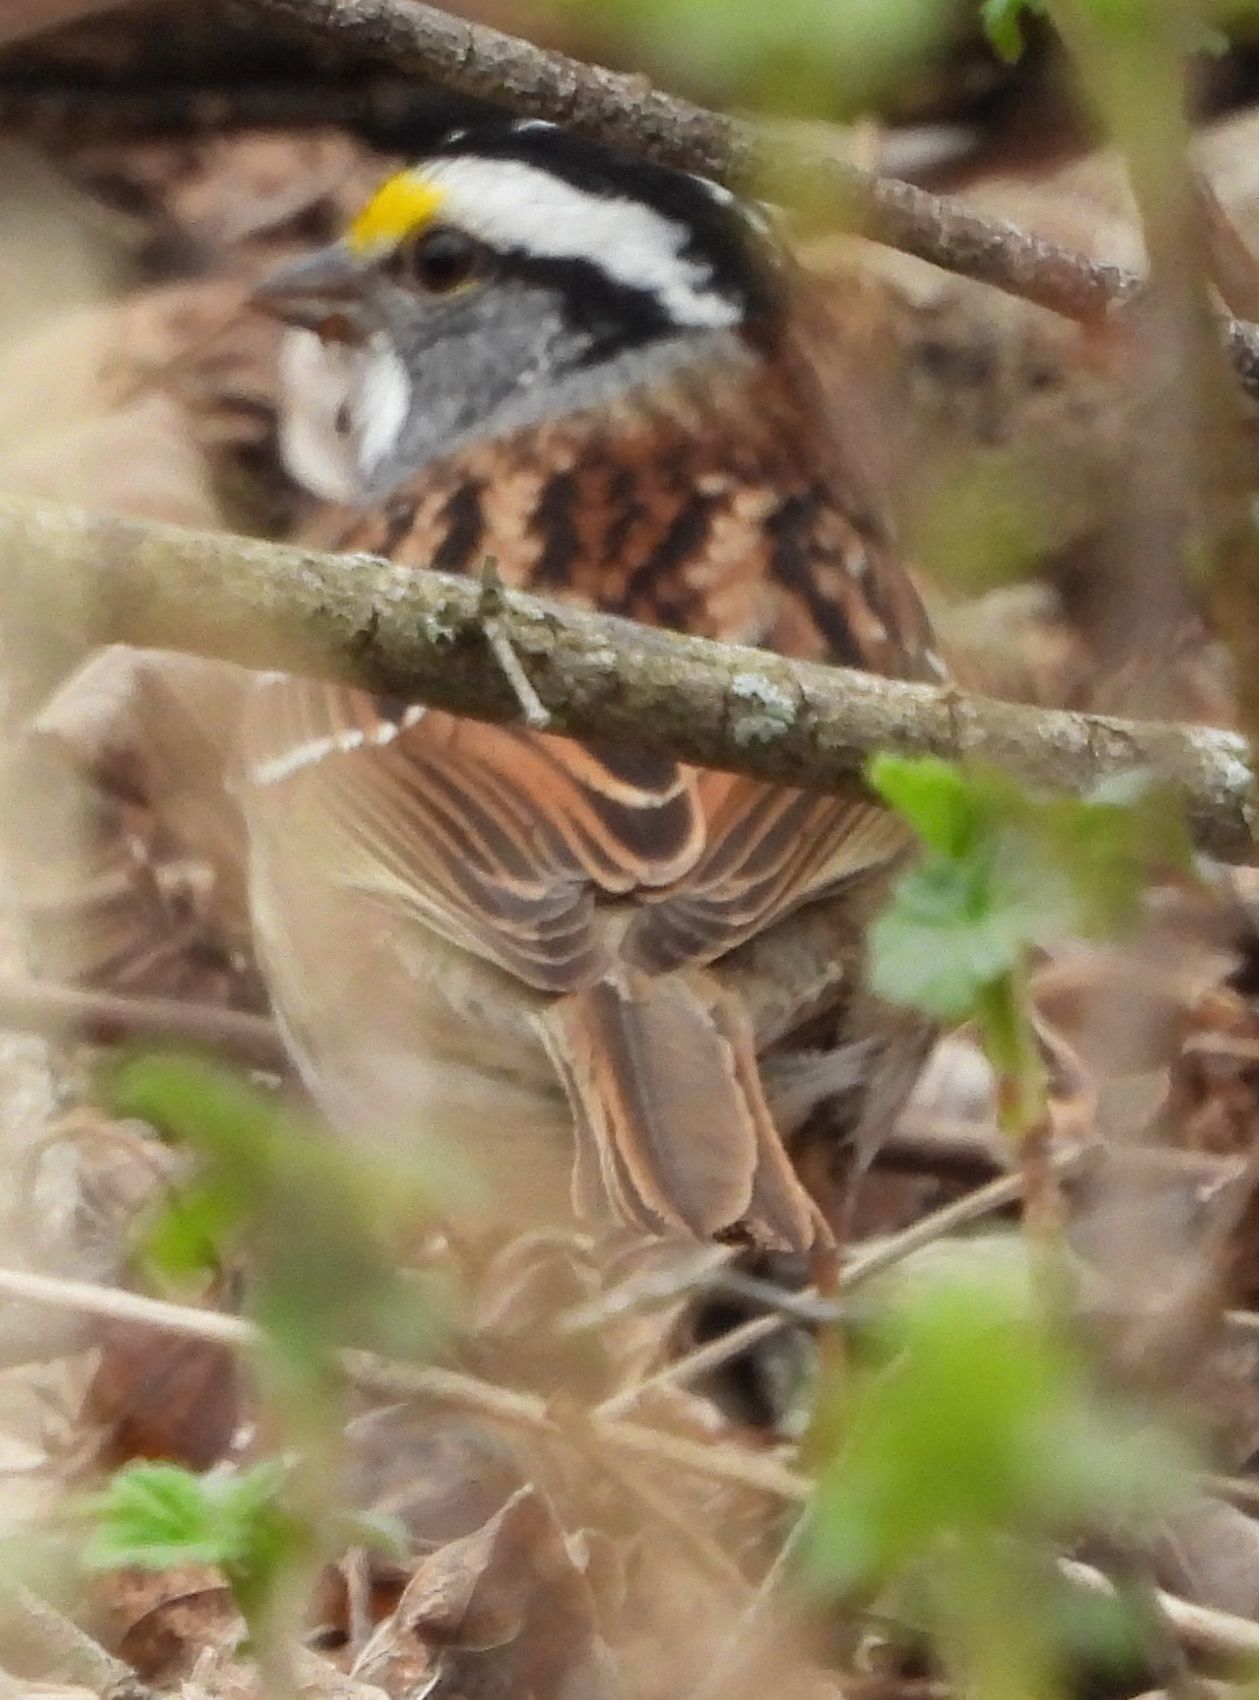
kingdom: Animalia
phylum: Chordata
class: Aves
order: Passeriformes
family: Passerellidae
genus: Zonotrichia
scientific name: Zonotrichia albicollis
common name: White-throated sparrow
